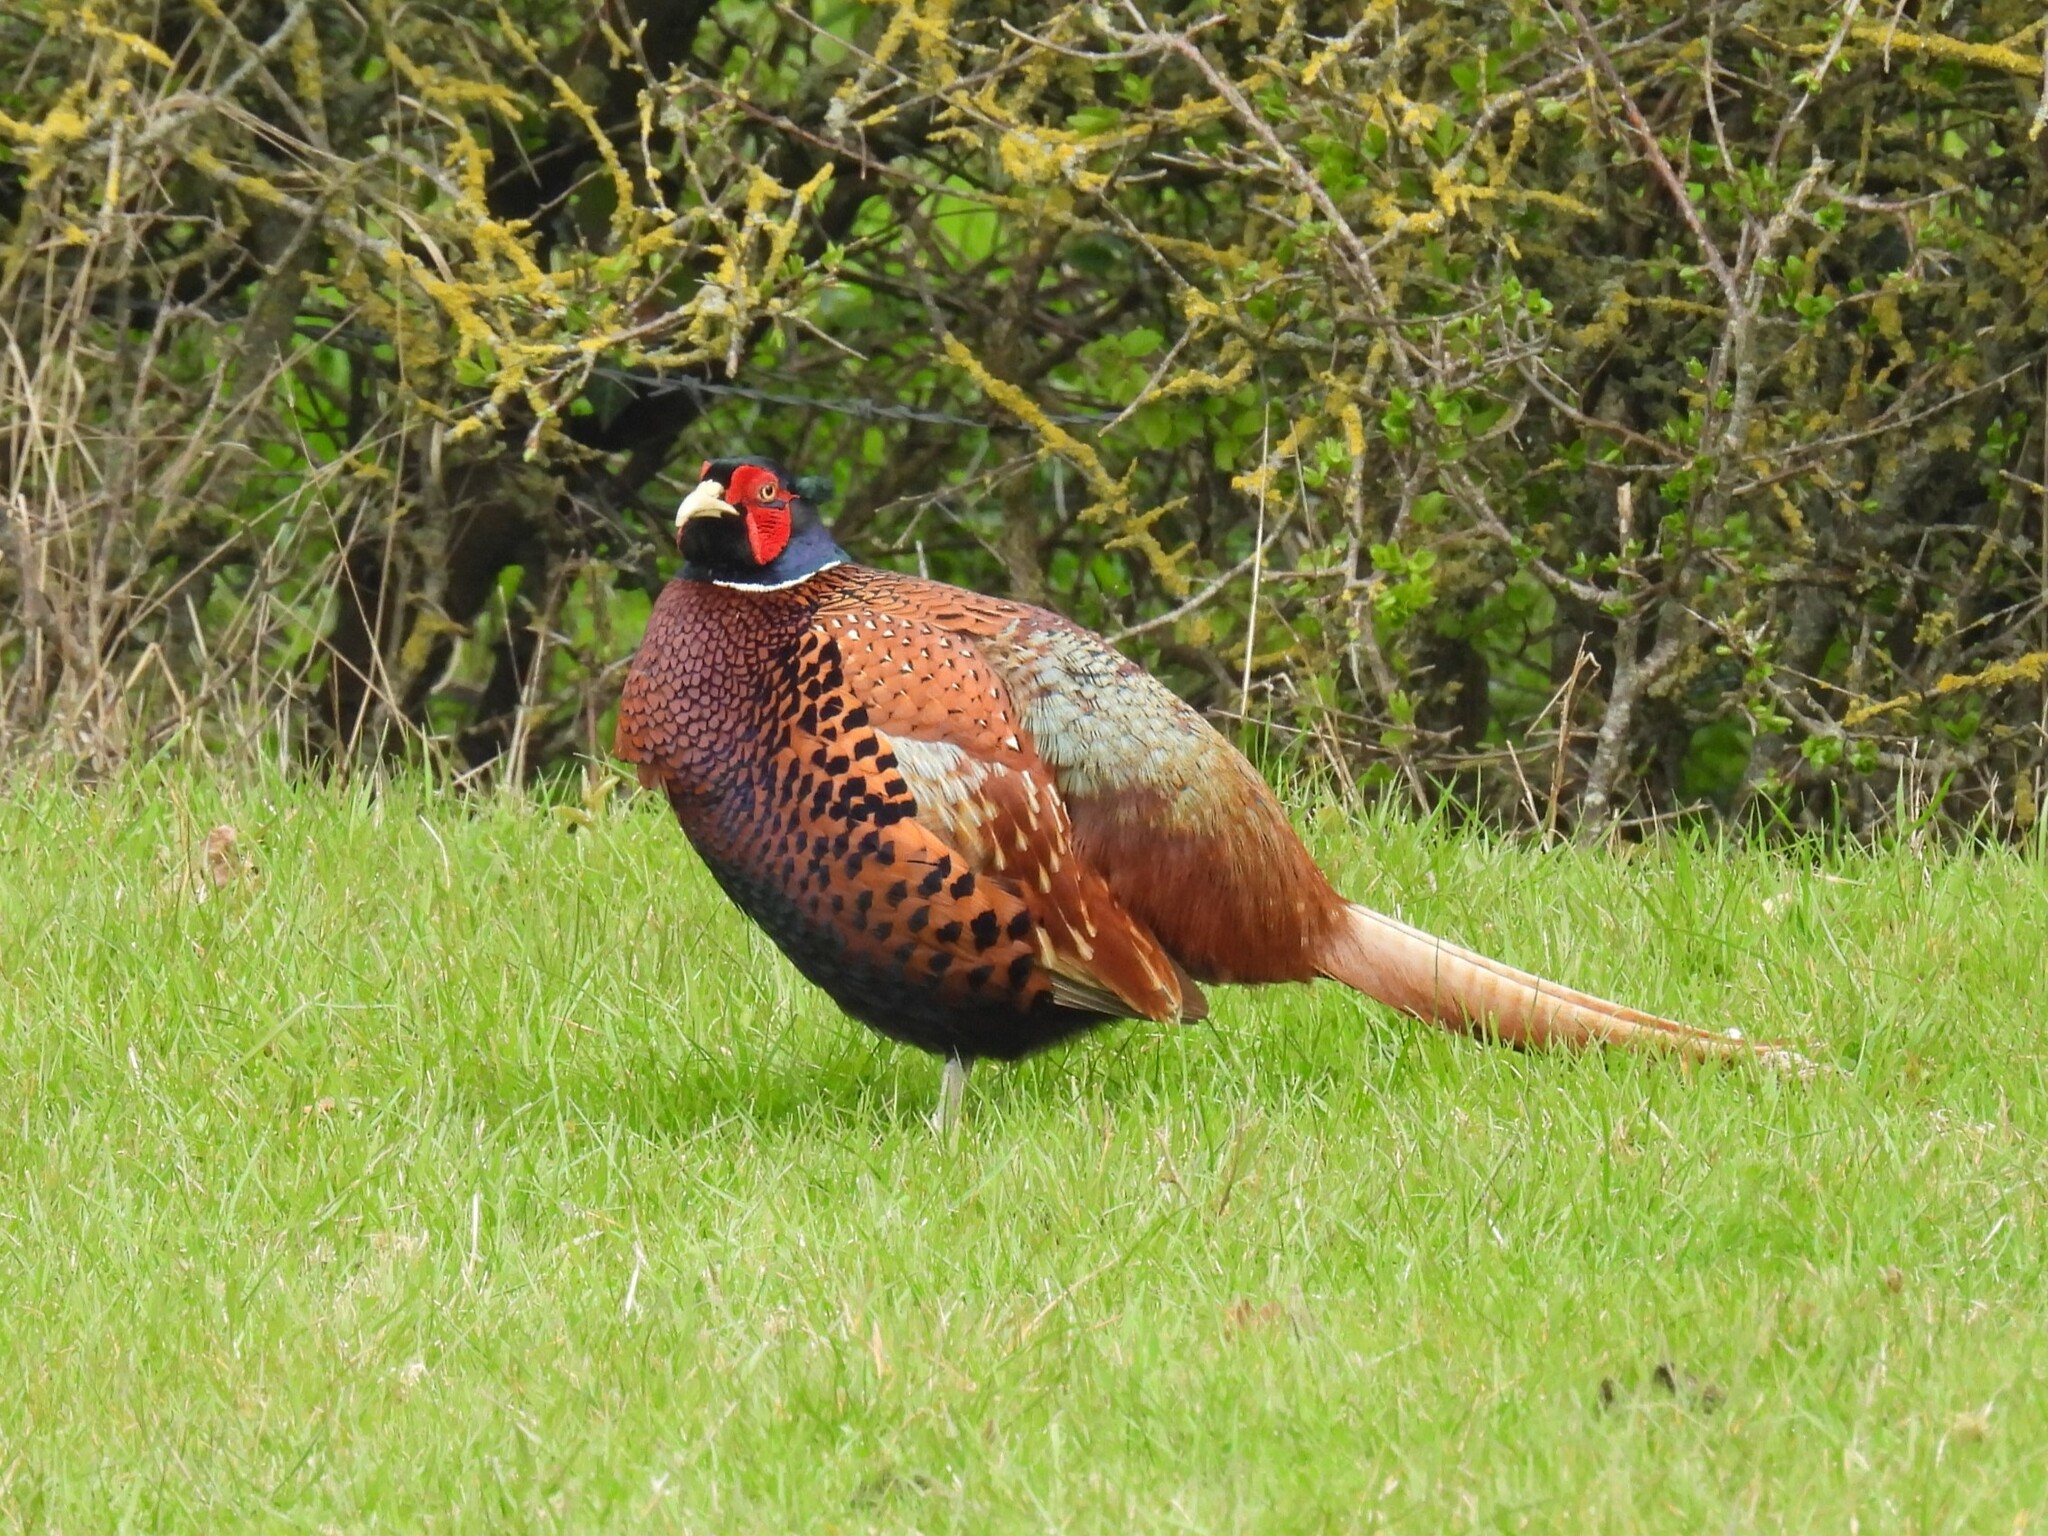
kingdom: Animalia
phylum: Chordata
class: Aves
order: Galliformes
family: Phasianidae
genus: Phasianus
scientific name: Phasianus colchicus
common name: Common pheasant
